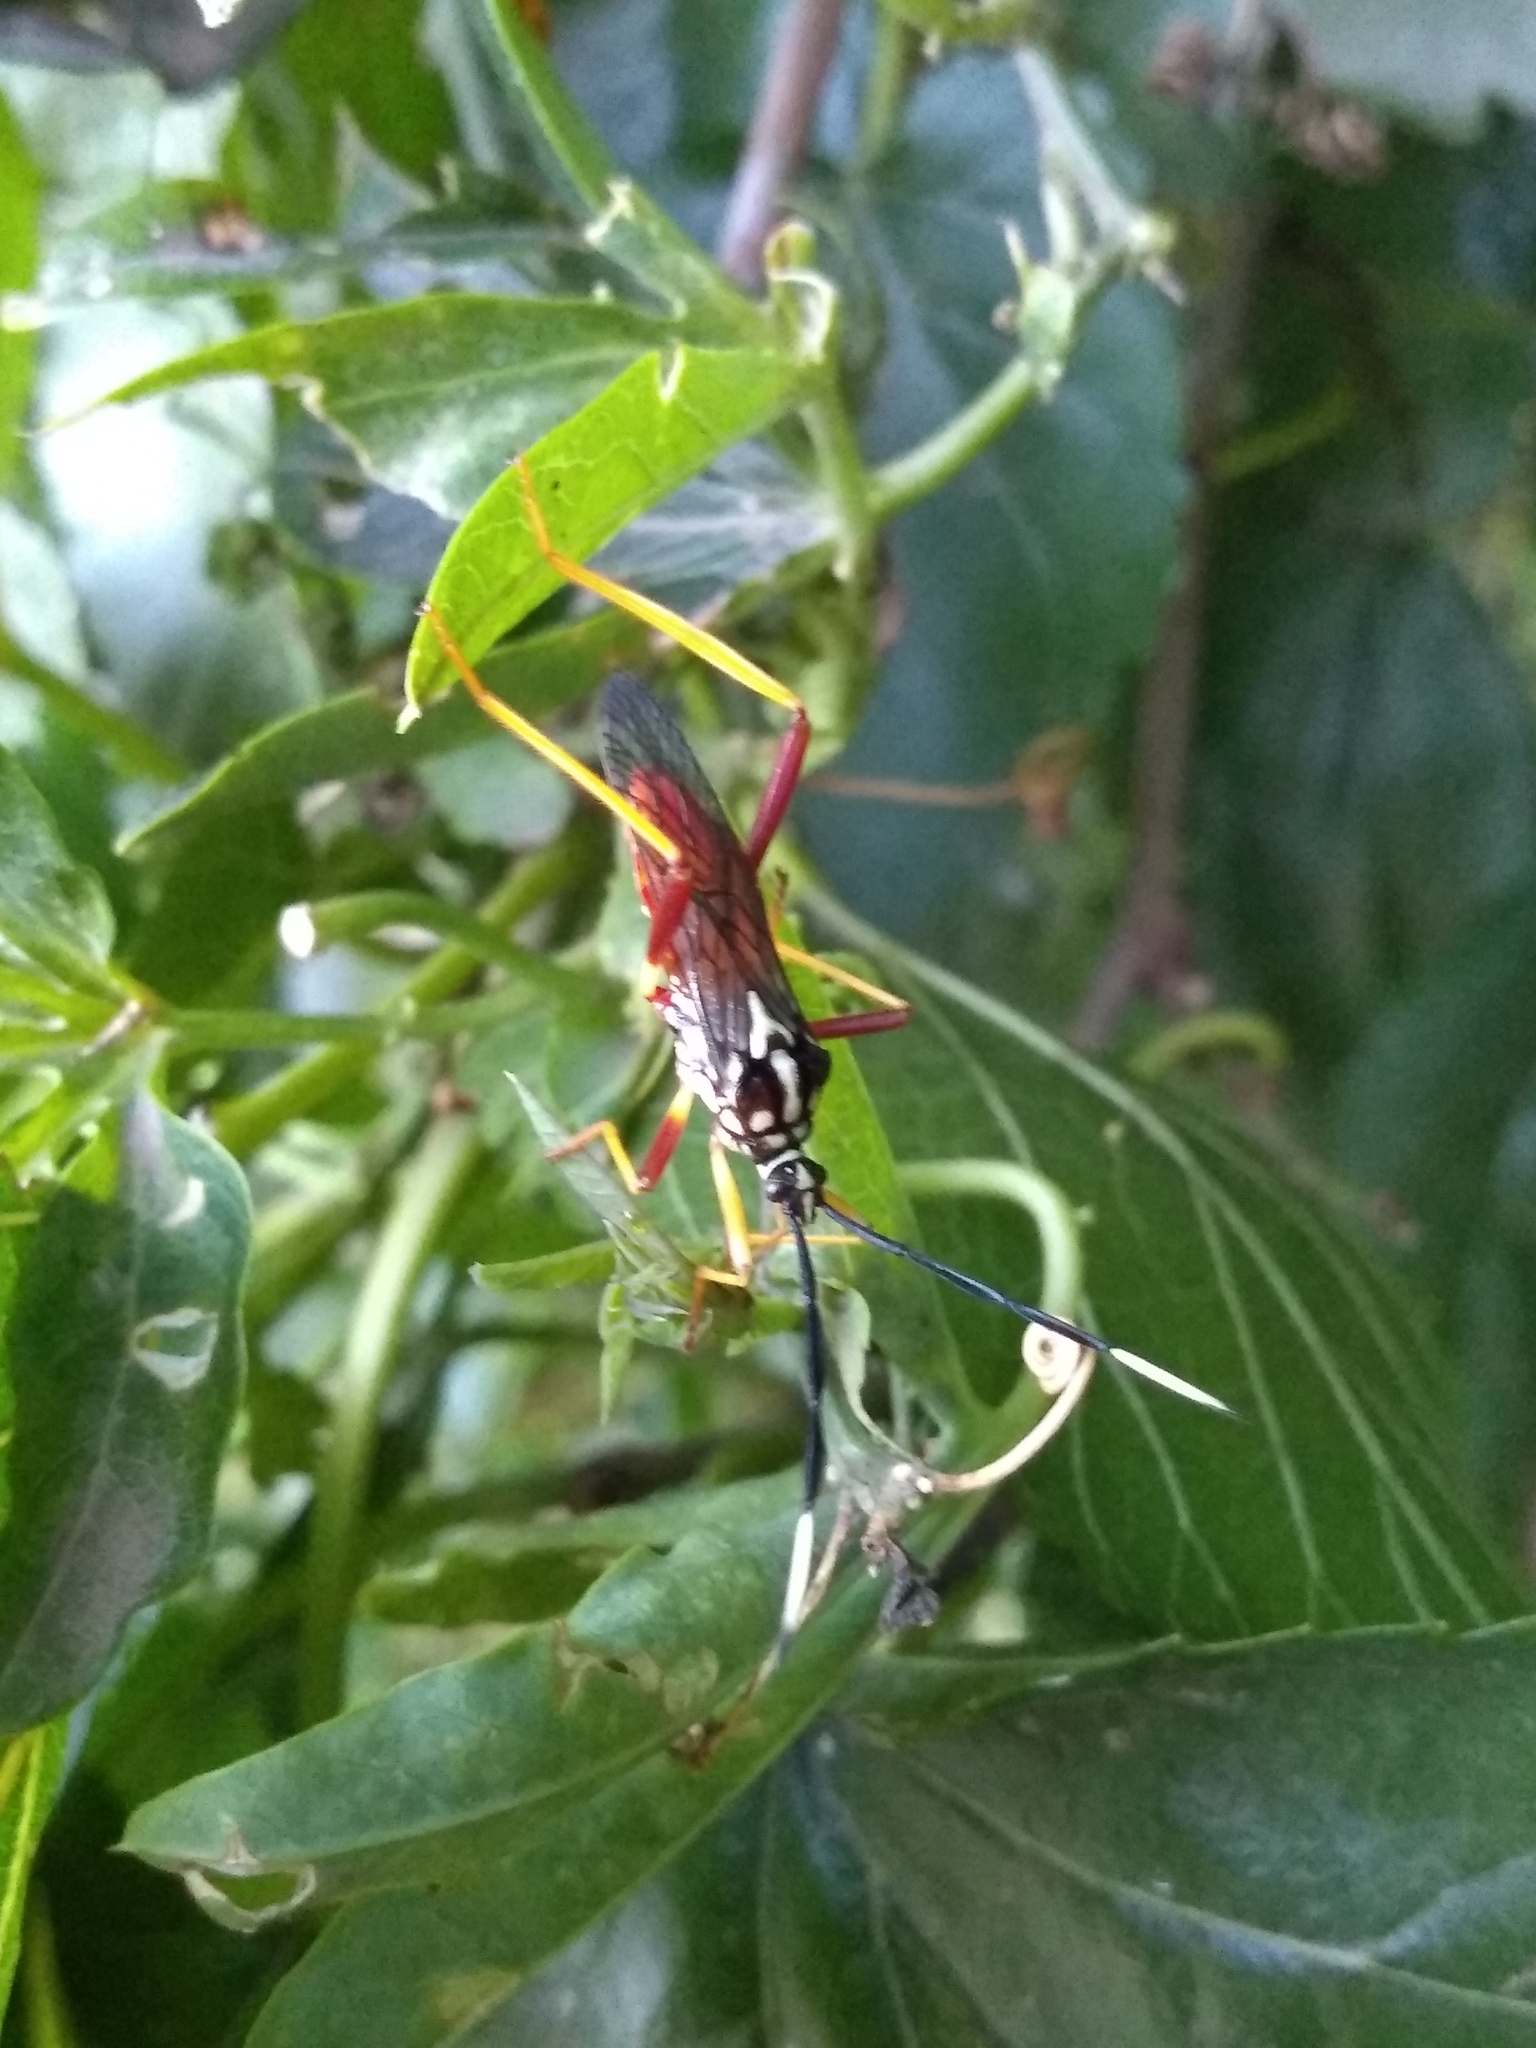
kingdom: Animalia
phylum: Arthropoda
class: Insecta
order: Hemiptera
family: Coreidae
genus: Holhymenia
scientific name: Holhymenia histrio
